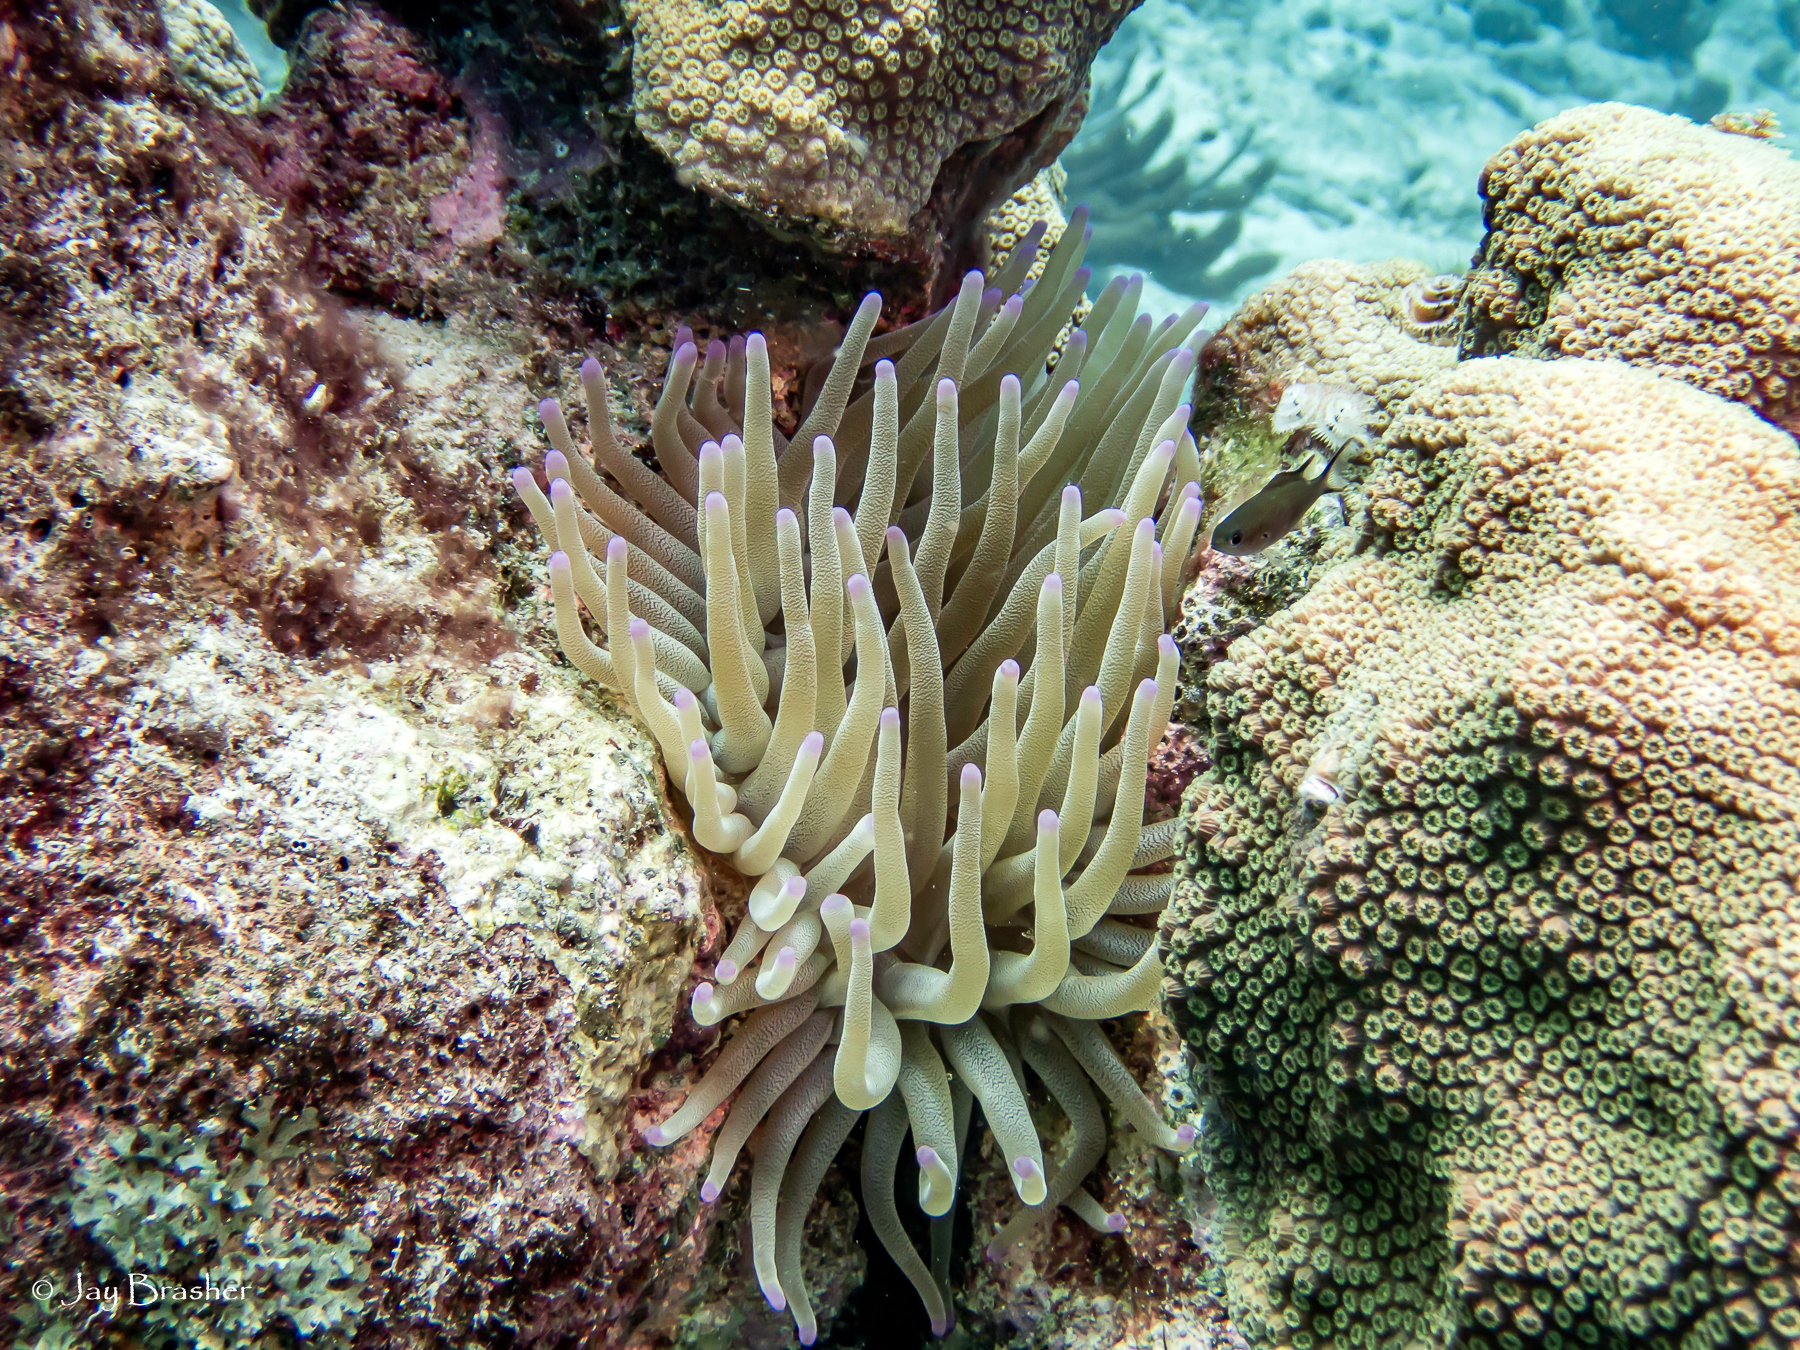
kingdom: Animalia
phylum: Cnidaria
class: Anthozoa
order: Actiniaria
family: Actiniidae
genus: Condylactis
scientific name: Condylactis gigantea
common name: Giant caribbean anemone
